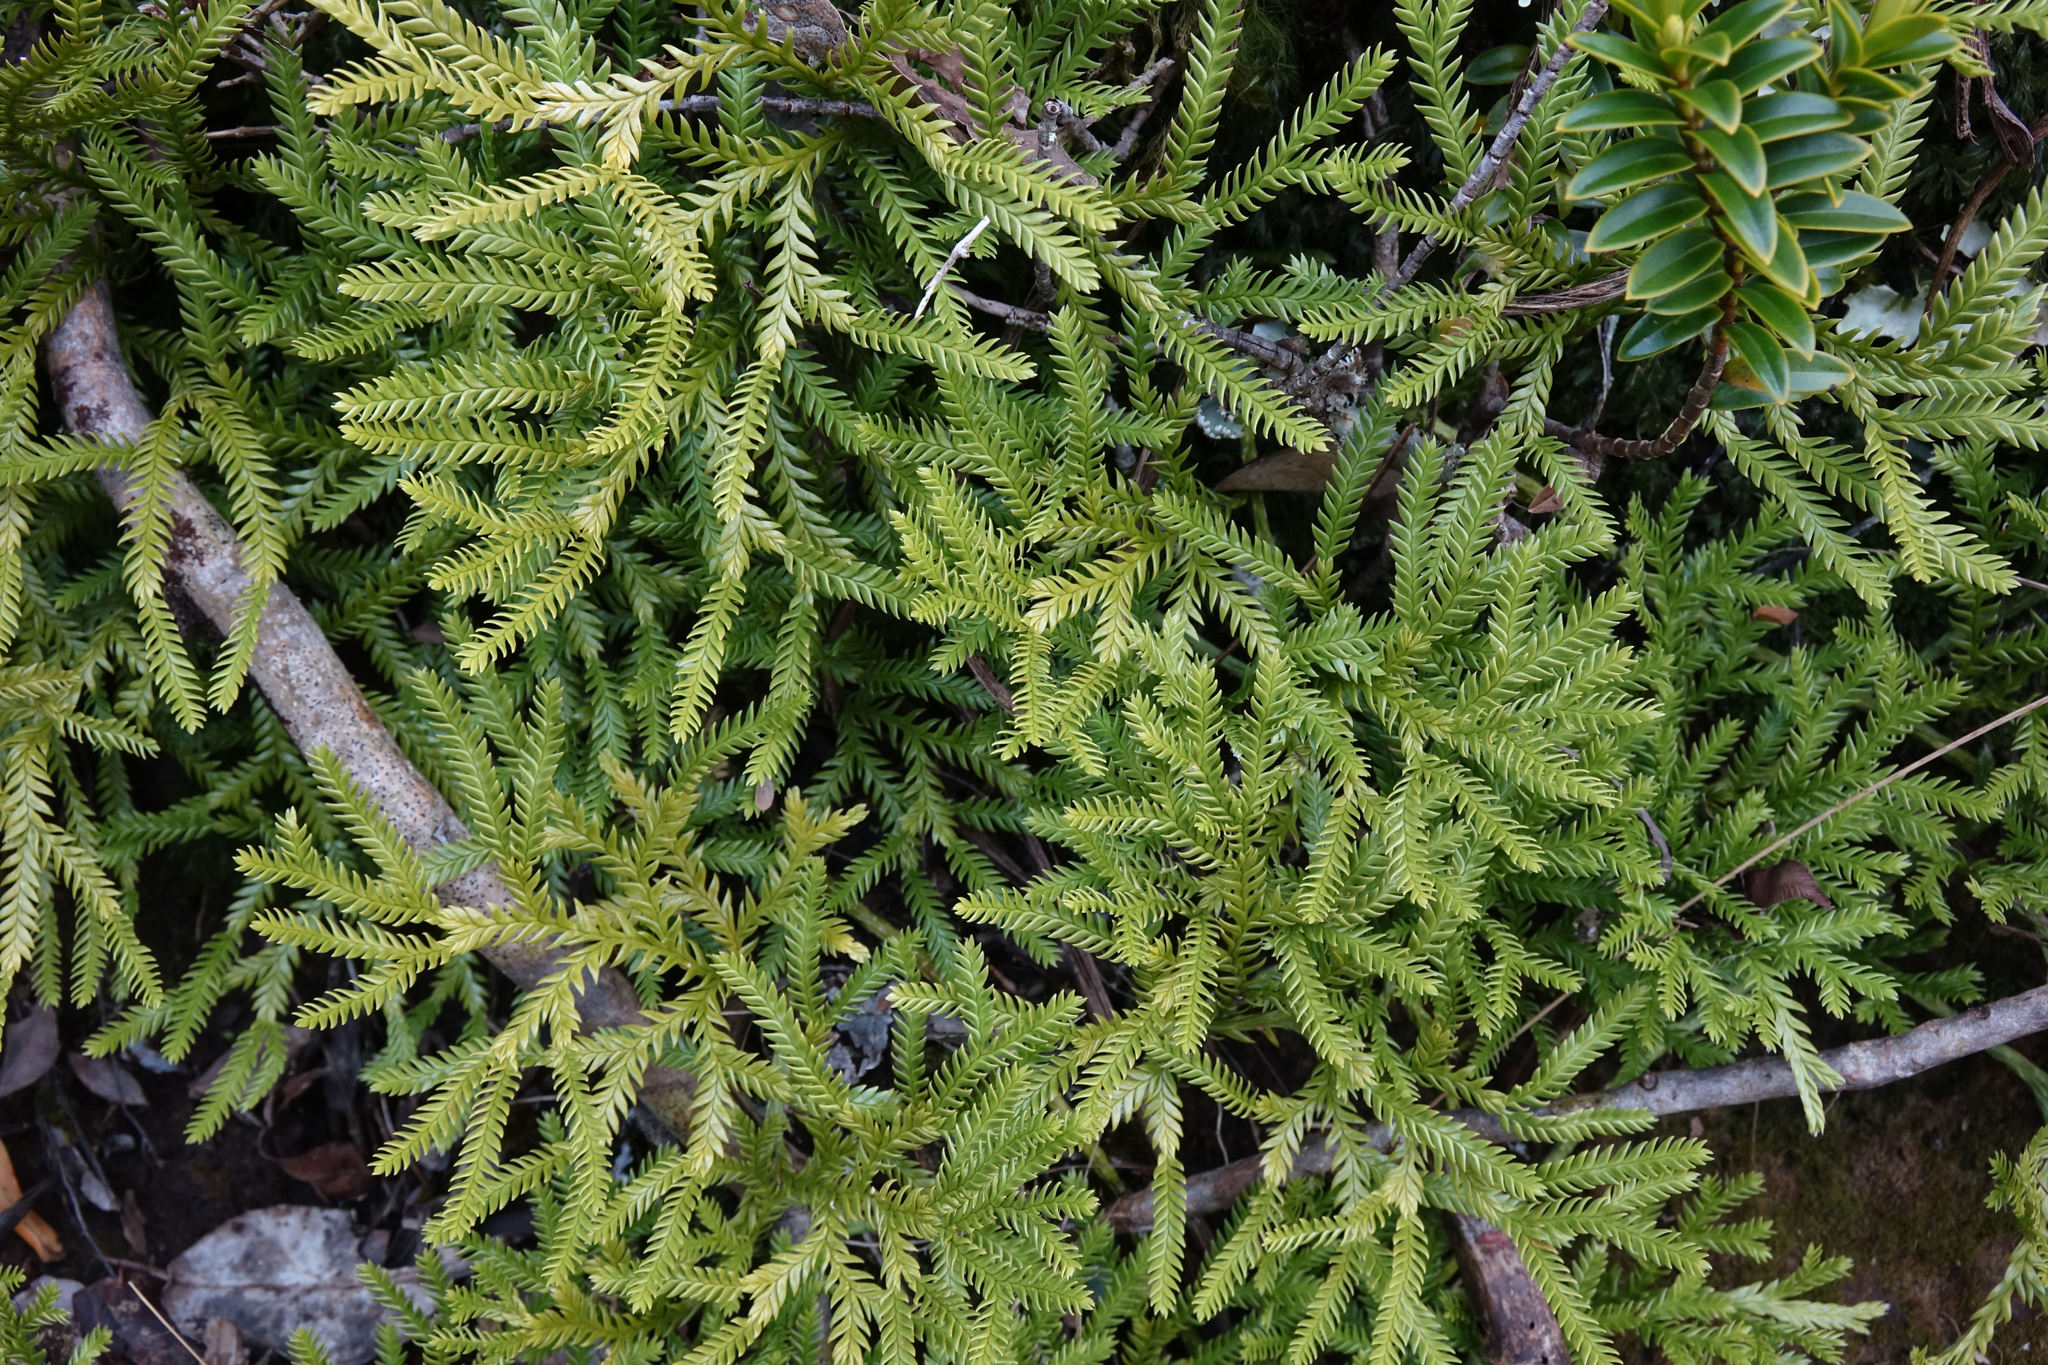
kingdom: Plantae
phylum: Tracheophyta
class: Lycopodiopsida
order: Lycopodiales
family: Lycopodiaceae
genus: Diphasium
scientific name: Diphasium scariosum
